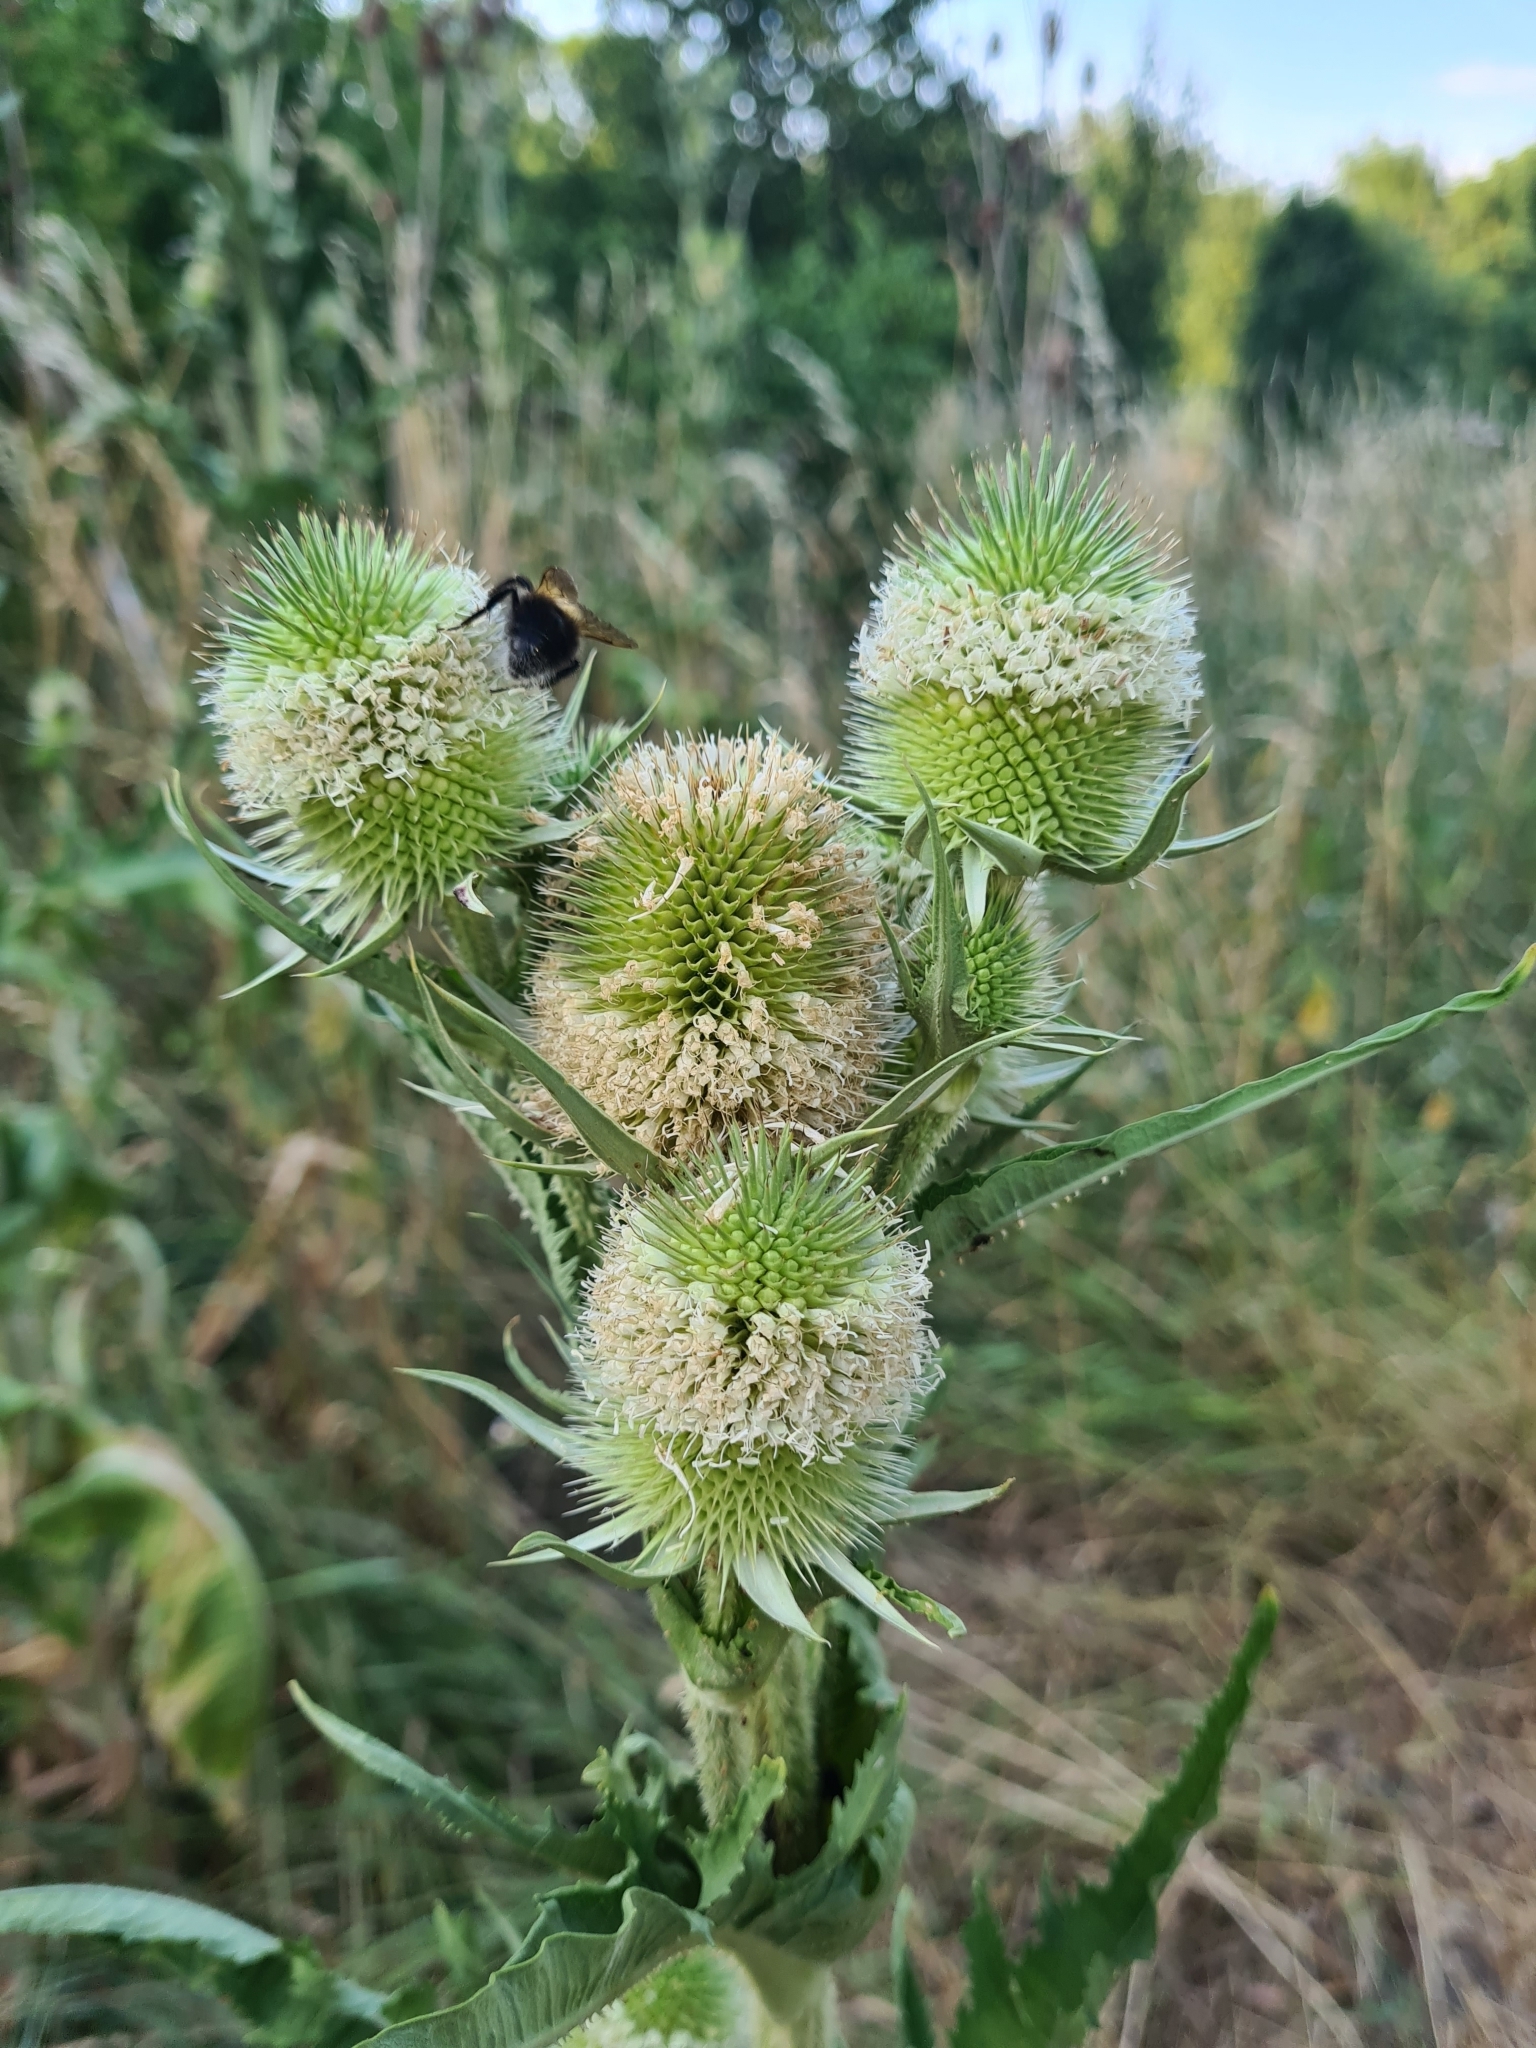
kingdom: Plantae
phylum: Tracheophyta
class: Magnoliopsida
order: Dipsacales
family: Caprifoliaceae
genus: Dipsacus
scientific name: Dipsacus laciniatus
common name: Cut-leaved teasel
